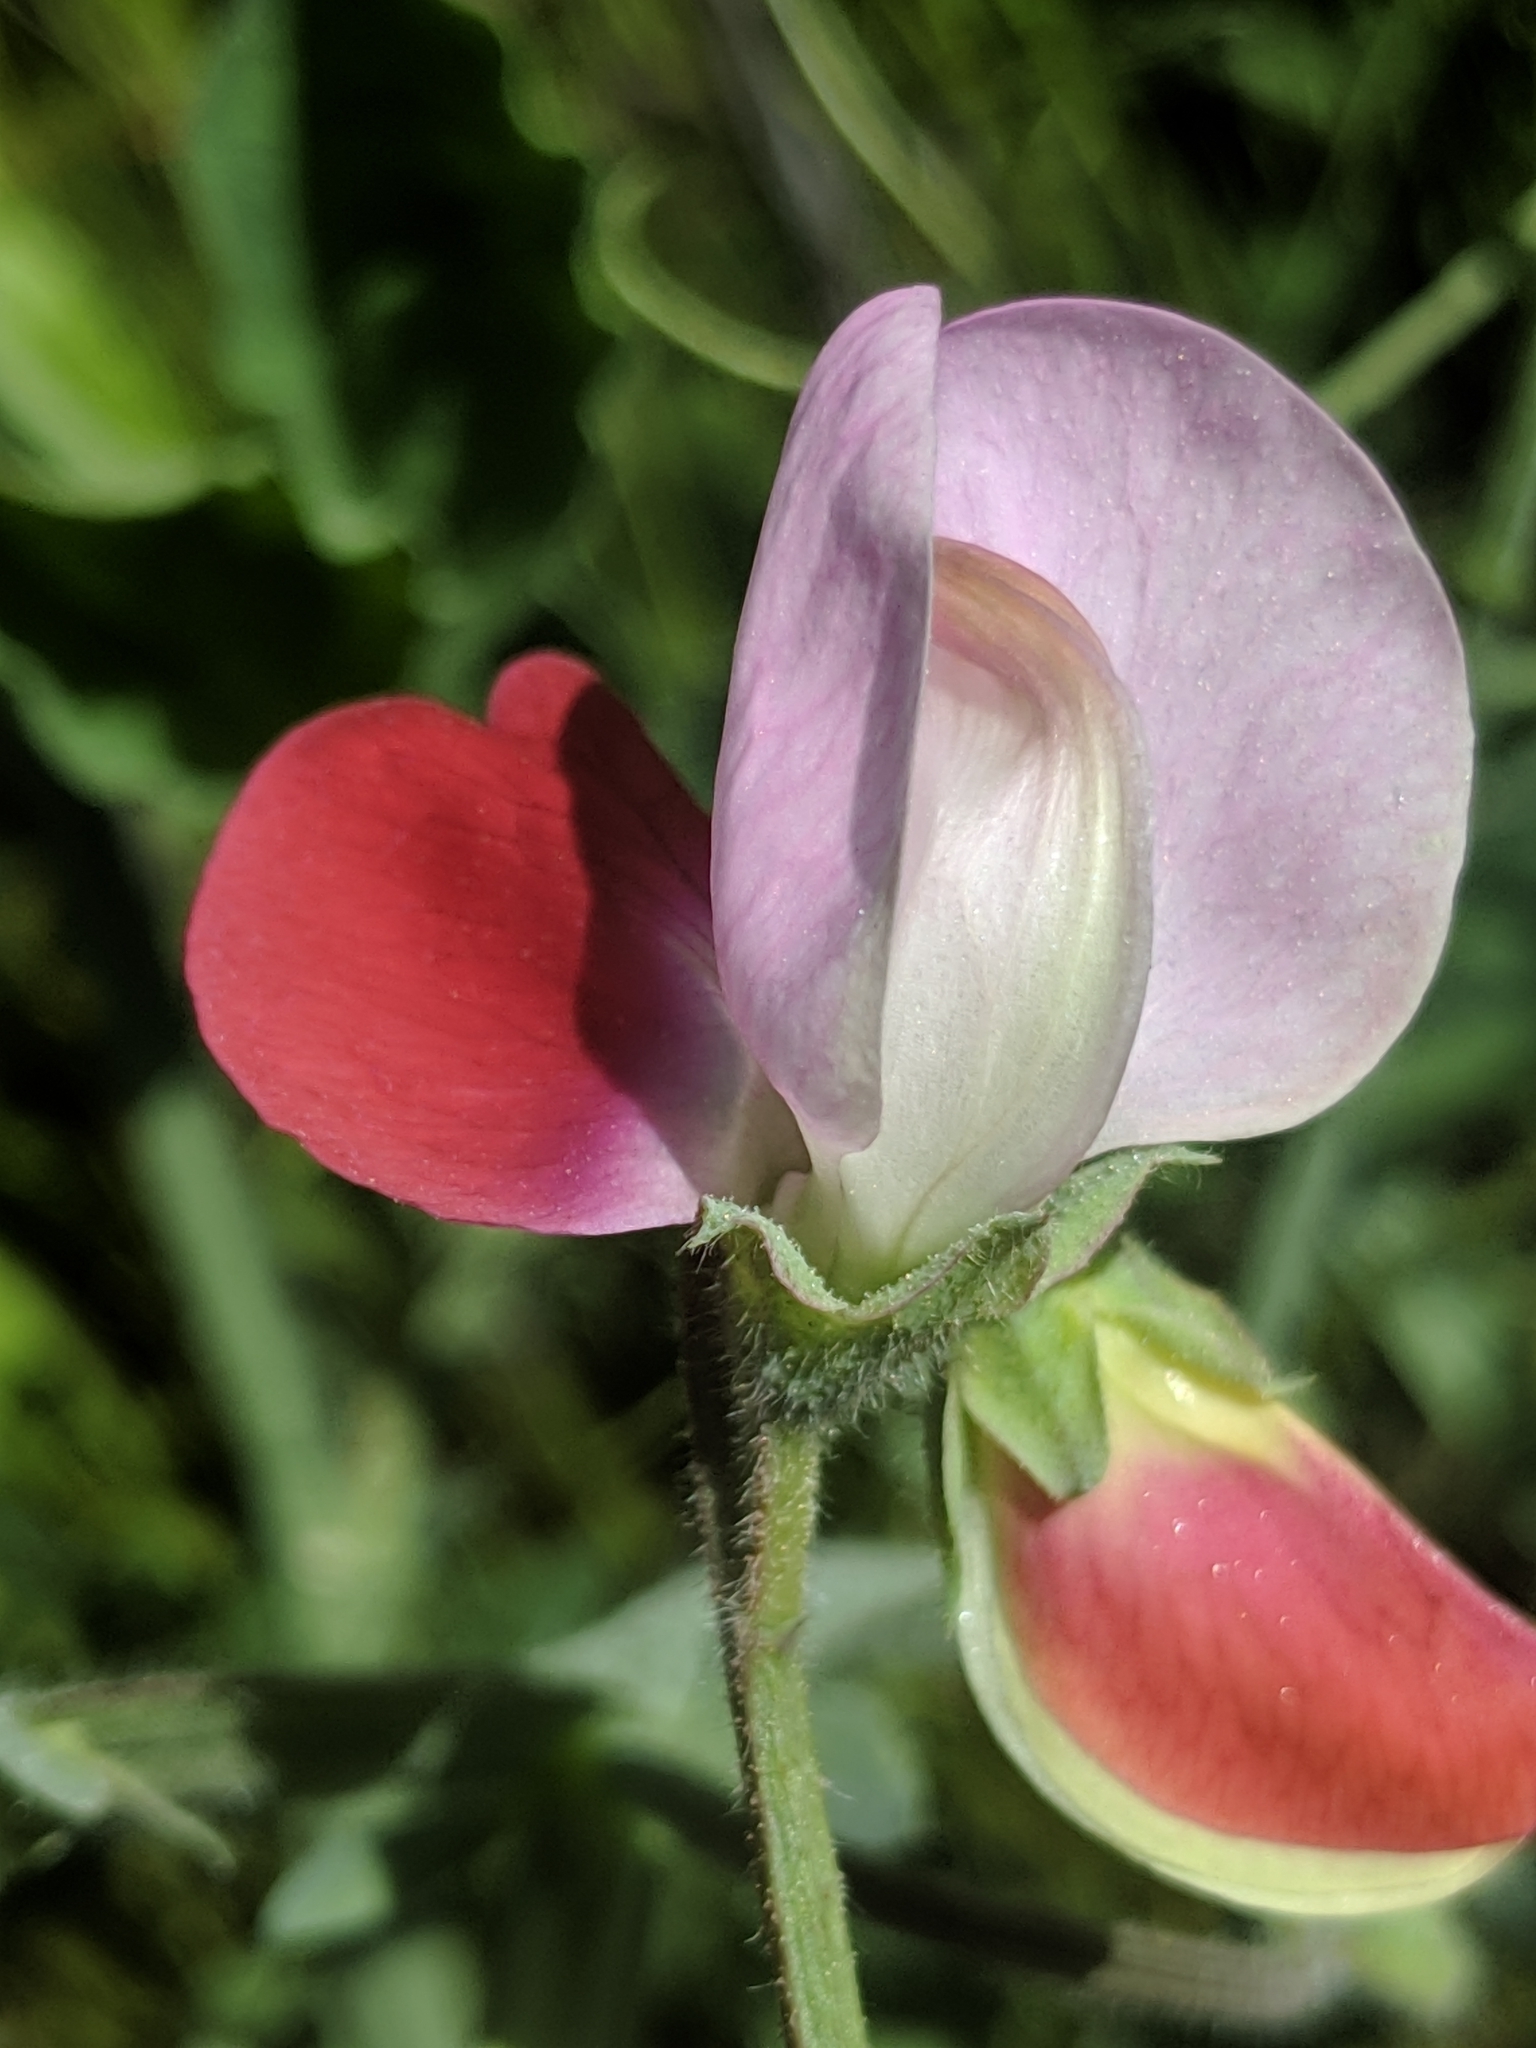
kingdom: Plantae
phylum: Tracheophyta
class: Magnoliopsida
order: Fabales
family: Fabaceae
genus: Lathyrus
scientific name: Lathyrus odoratus
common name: Sweet pea
